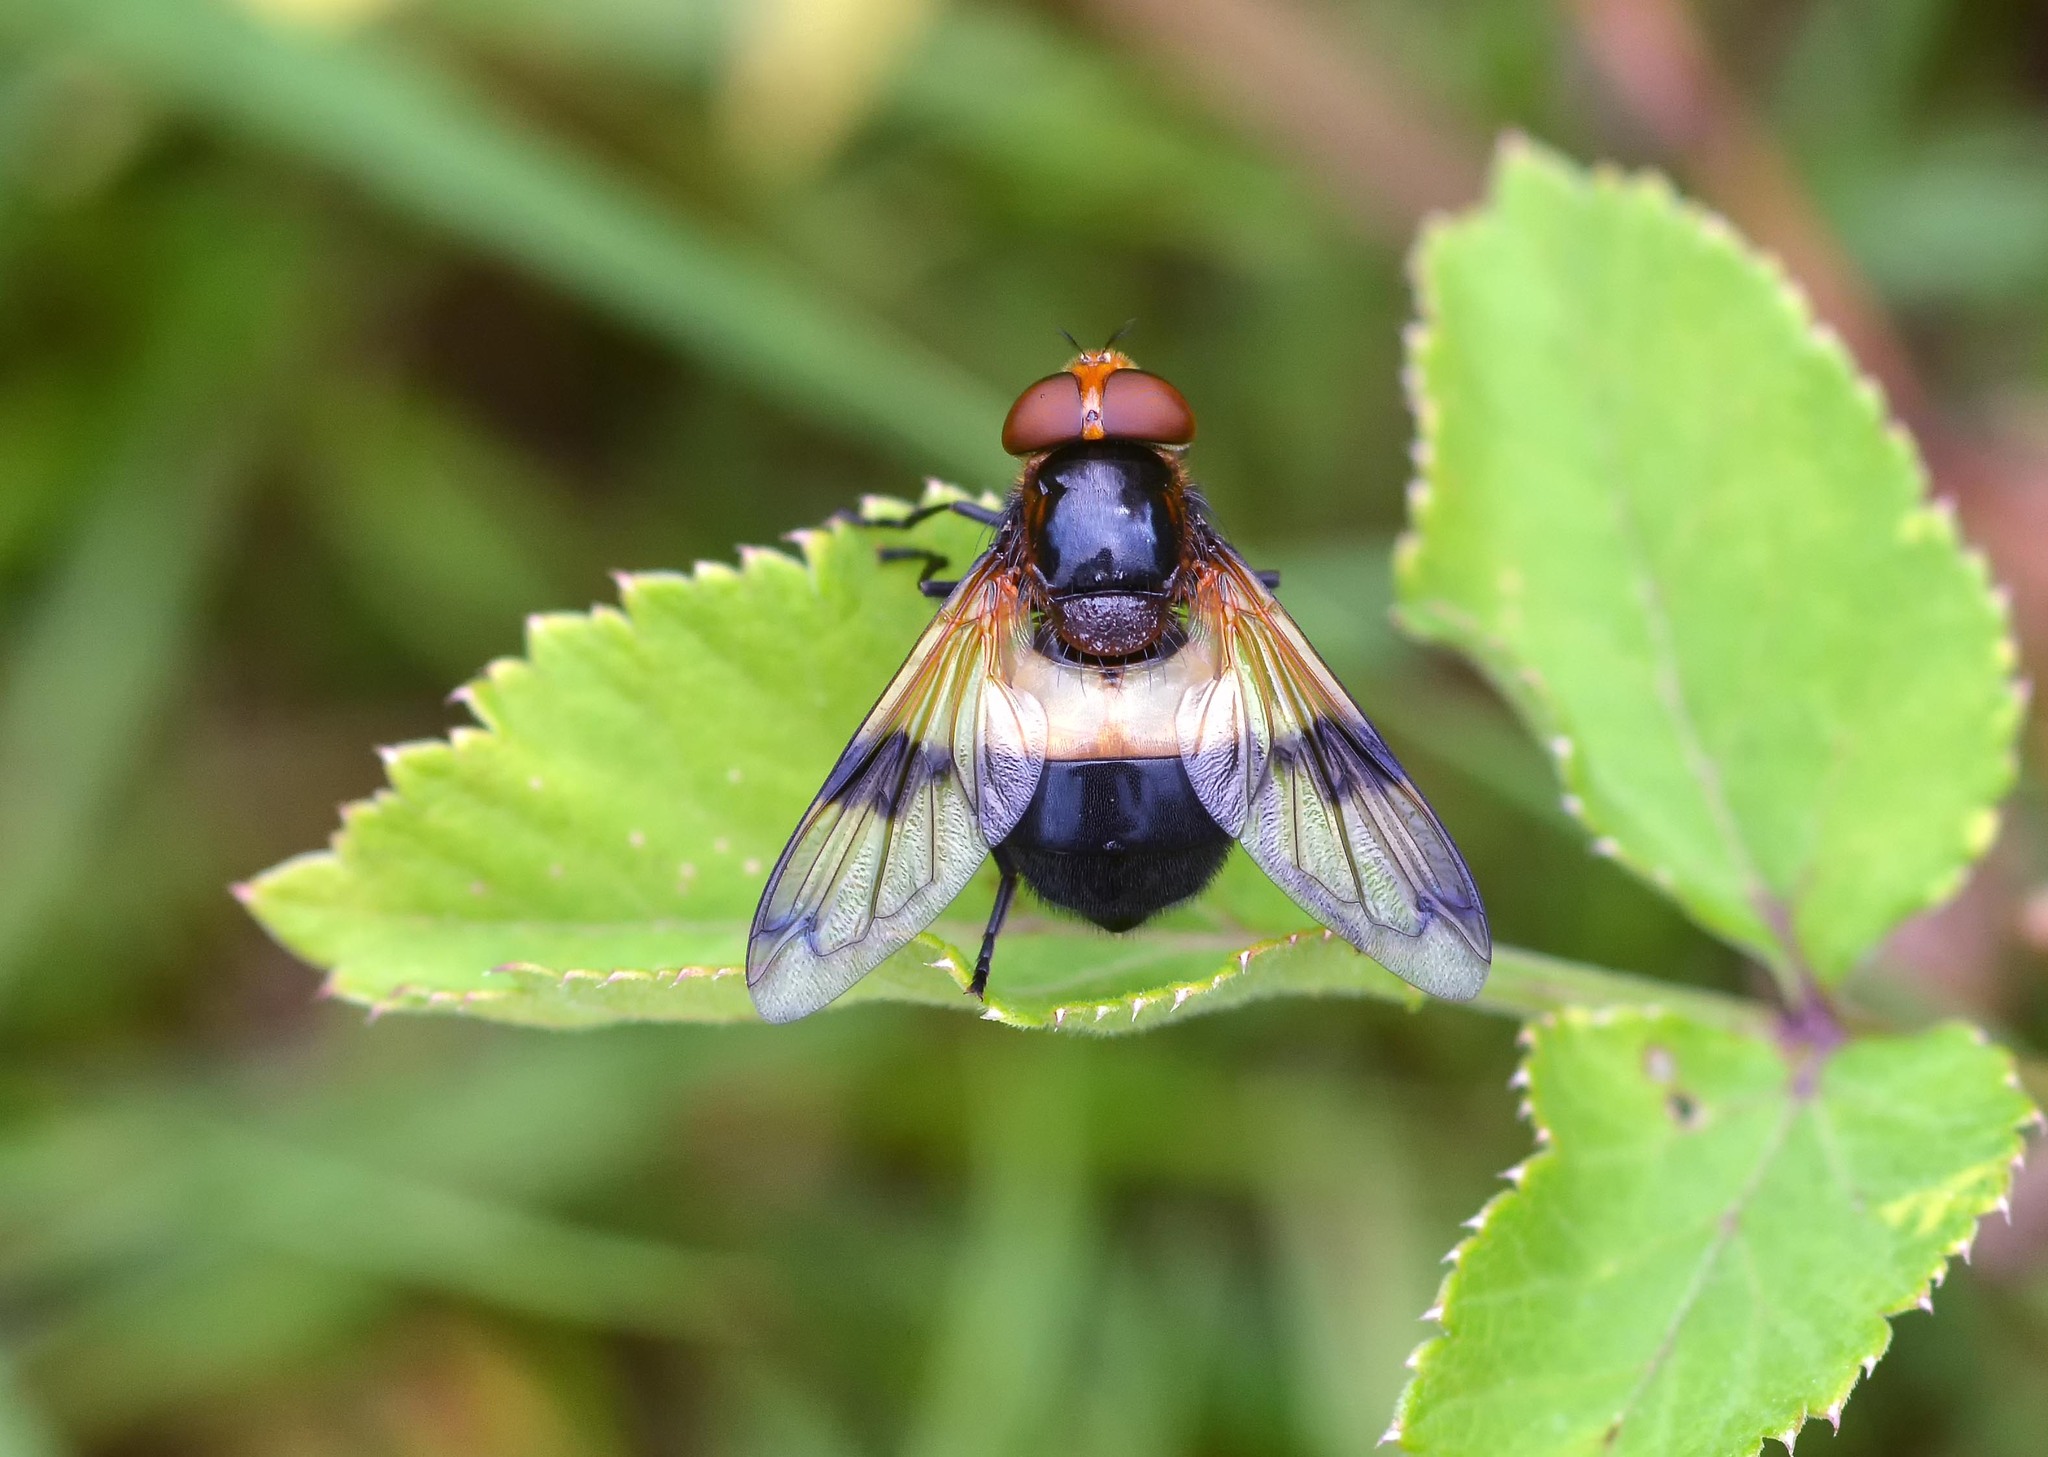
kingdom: Animalia
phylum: Arthropoda
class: Insecta
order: Diptera
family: Syrphidae
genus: Volucella
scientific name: Volucella pellucens
